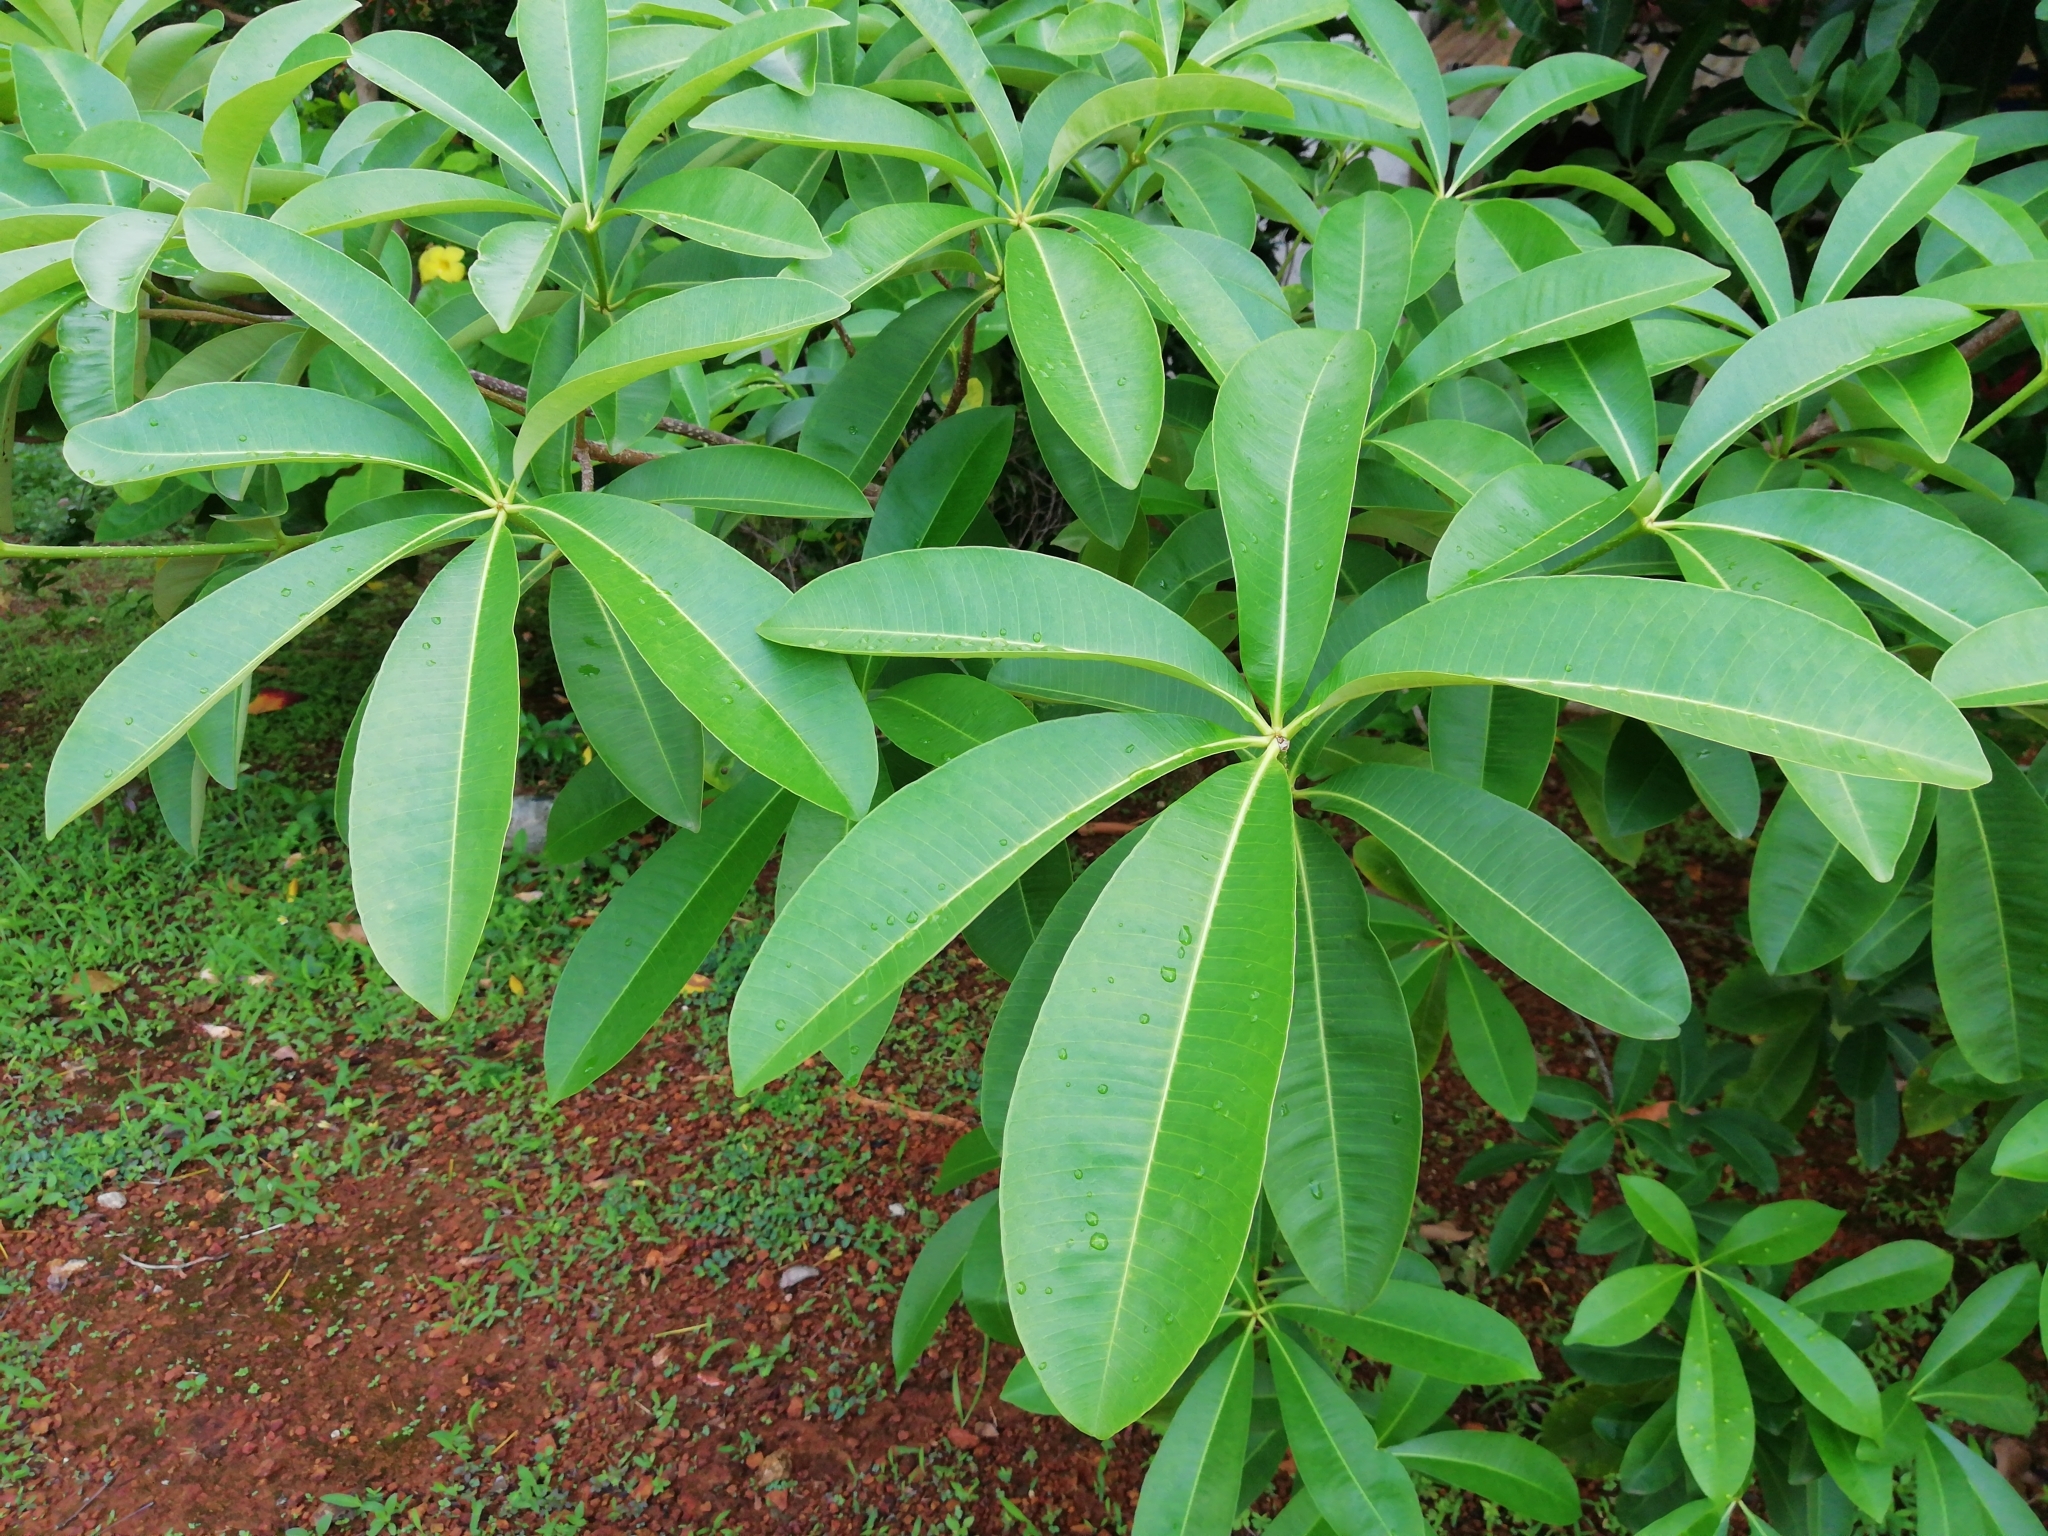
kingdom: Plantae
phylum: Tracheophyta
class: Magnoliopsida
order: Gentianales
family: Apocynaceae
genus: Alstonia
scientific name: Alstonia scholaris
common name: White cheesewood
